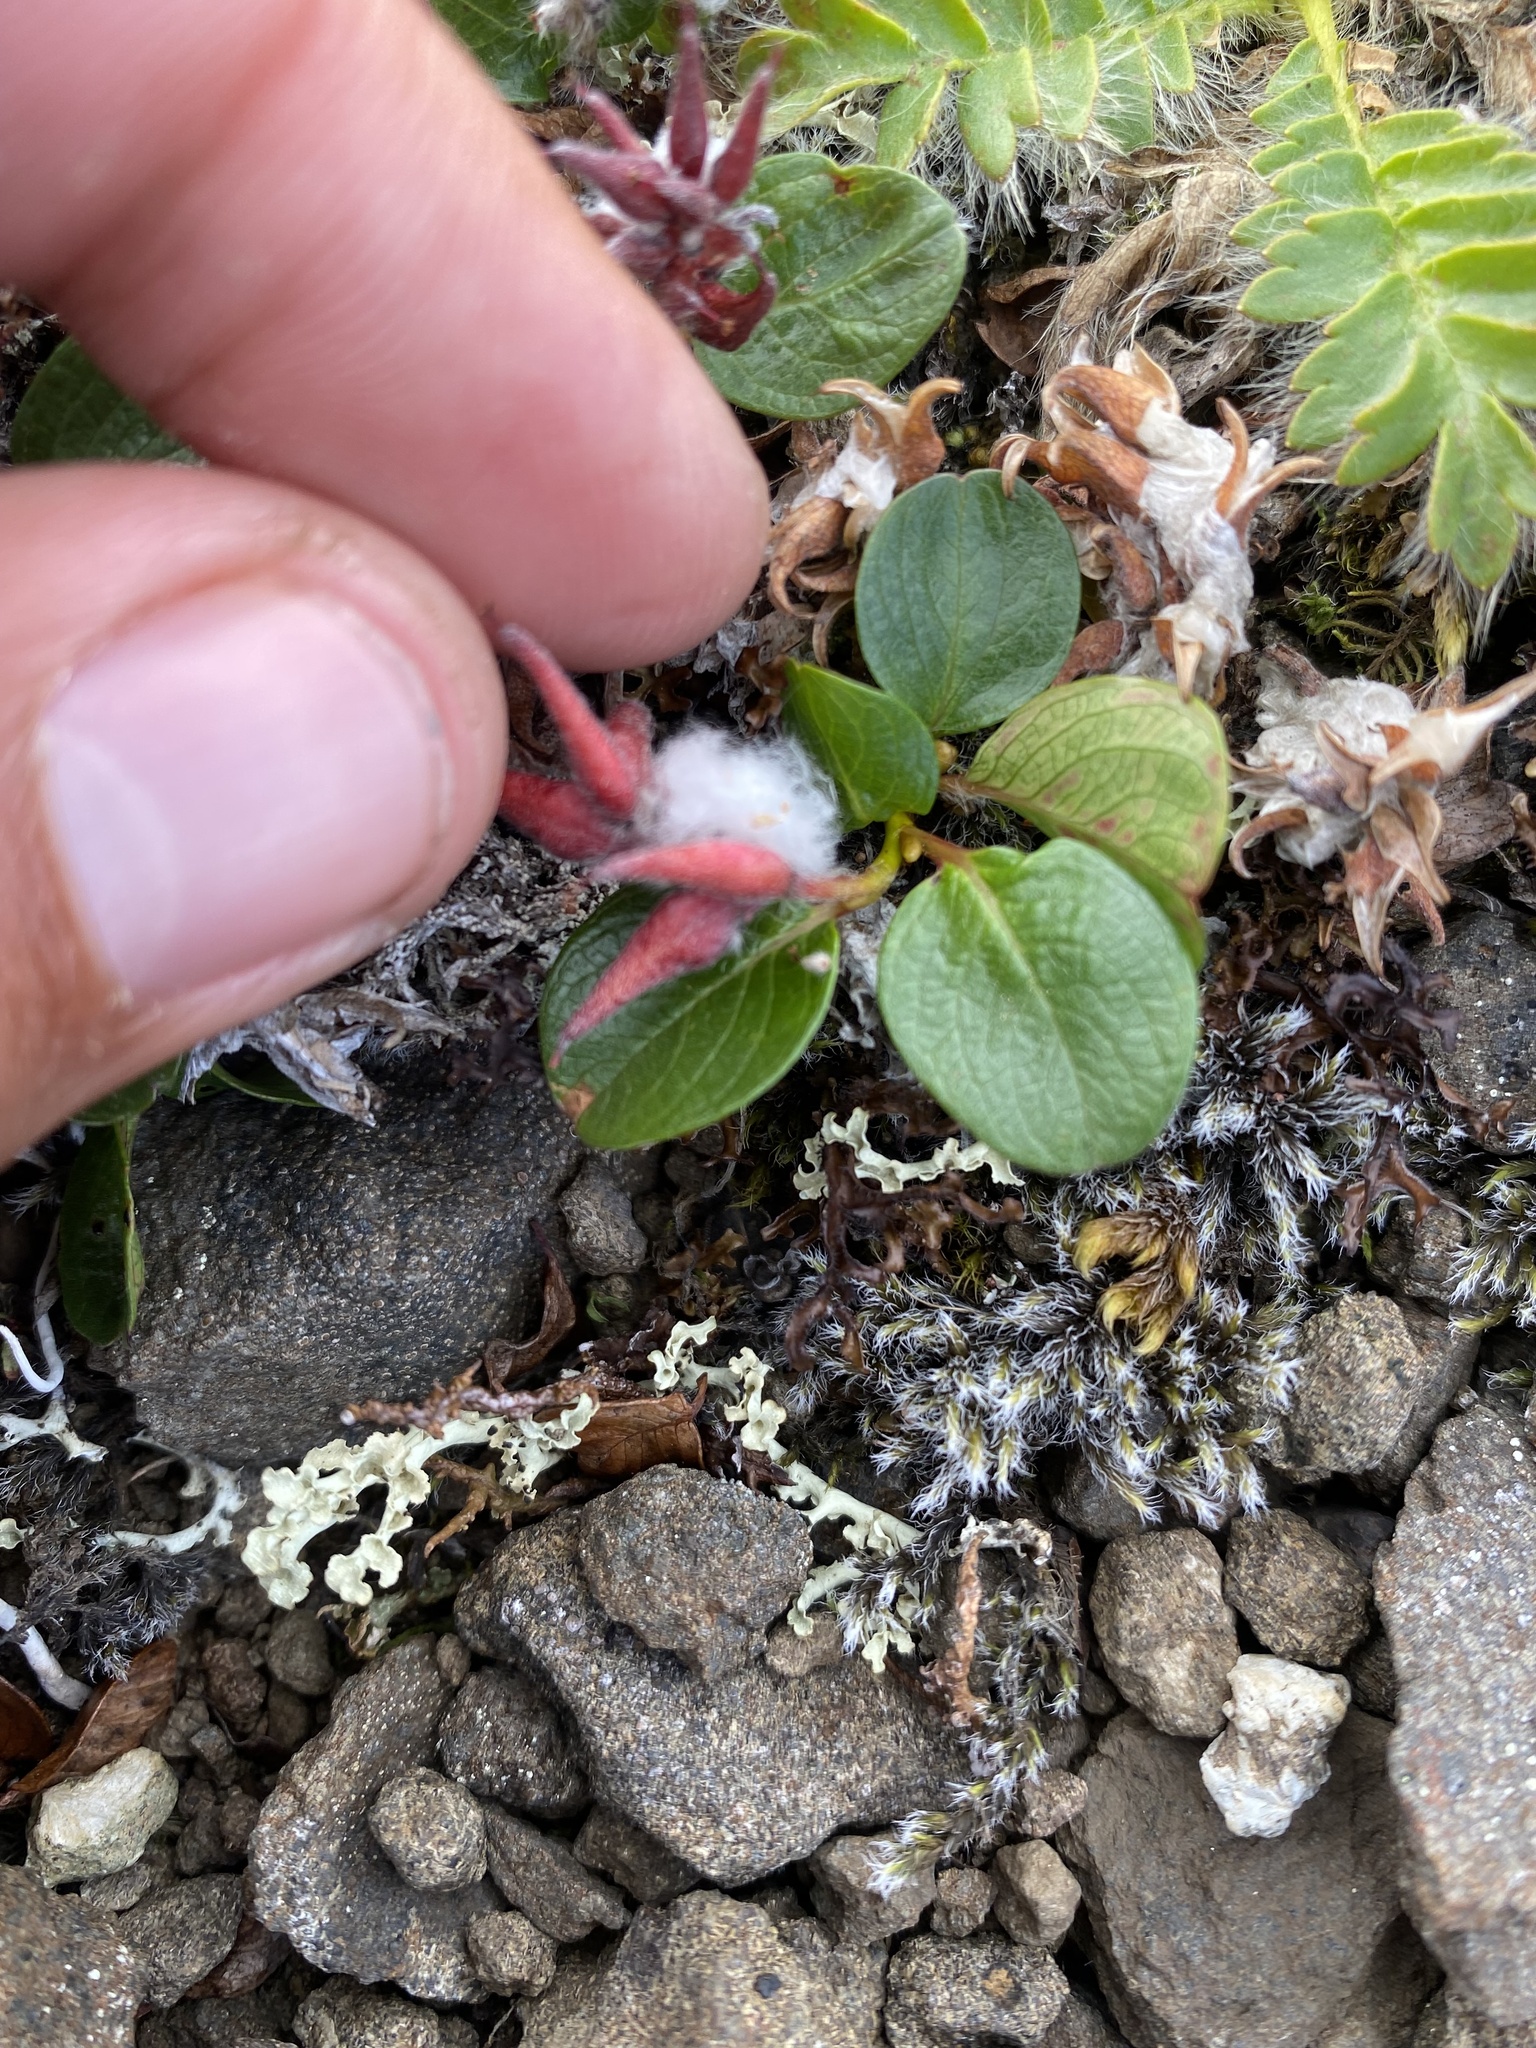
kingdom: Plantae
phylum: Tracheophyta
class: Magnoliopsida
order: Malpighiales
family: Salicaceae
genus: Salix
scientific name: Salix polaris
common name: Polar willow
